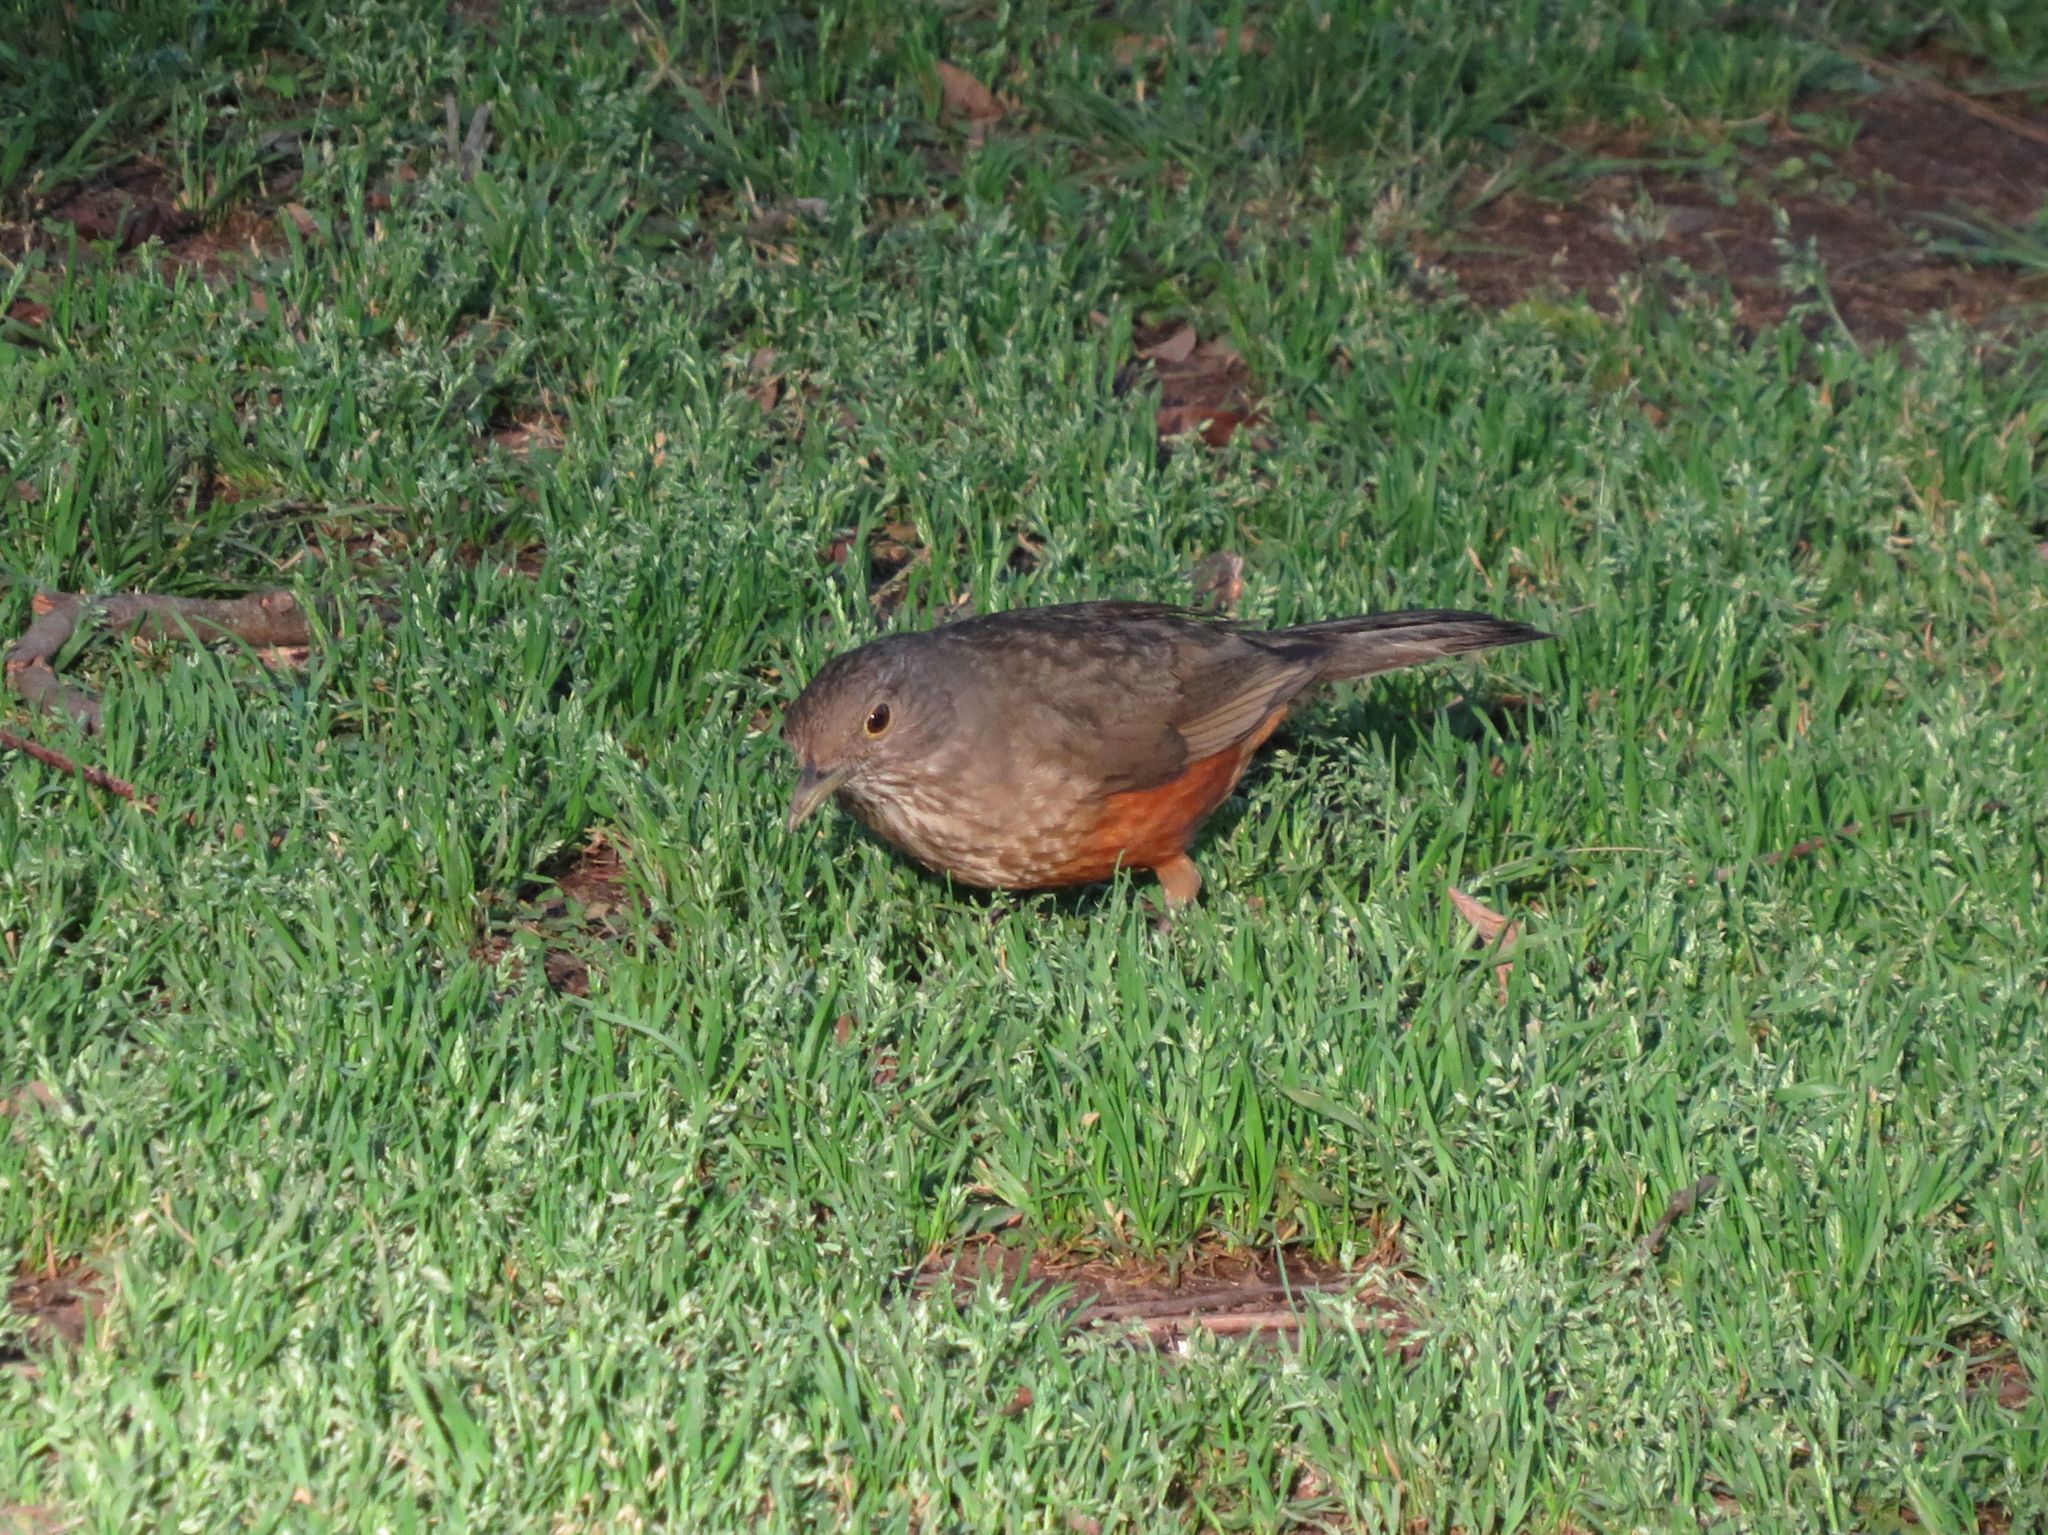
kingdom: Animalia
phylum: Chordata
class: Aves
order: Passeriformes
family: Turdidae
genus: Turdus
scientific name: Turdus rufiventris
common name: Rufous-bellied thrush
